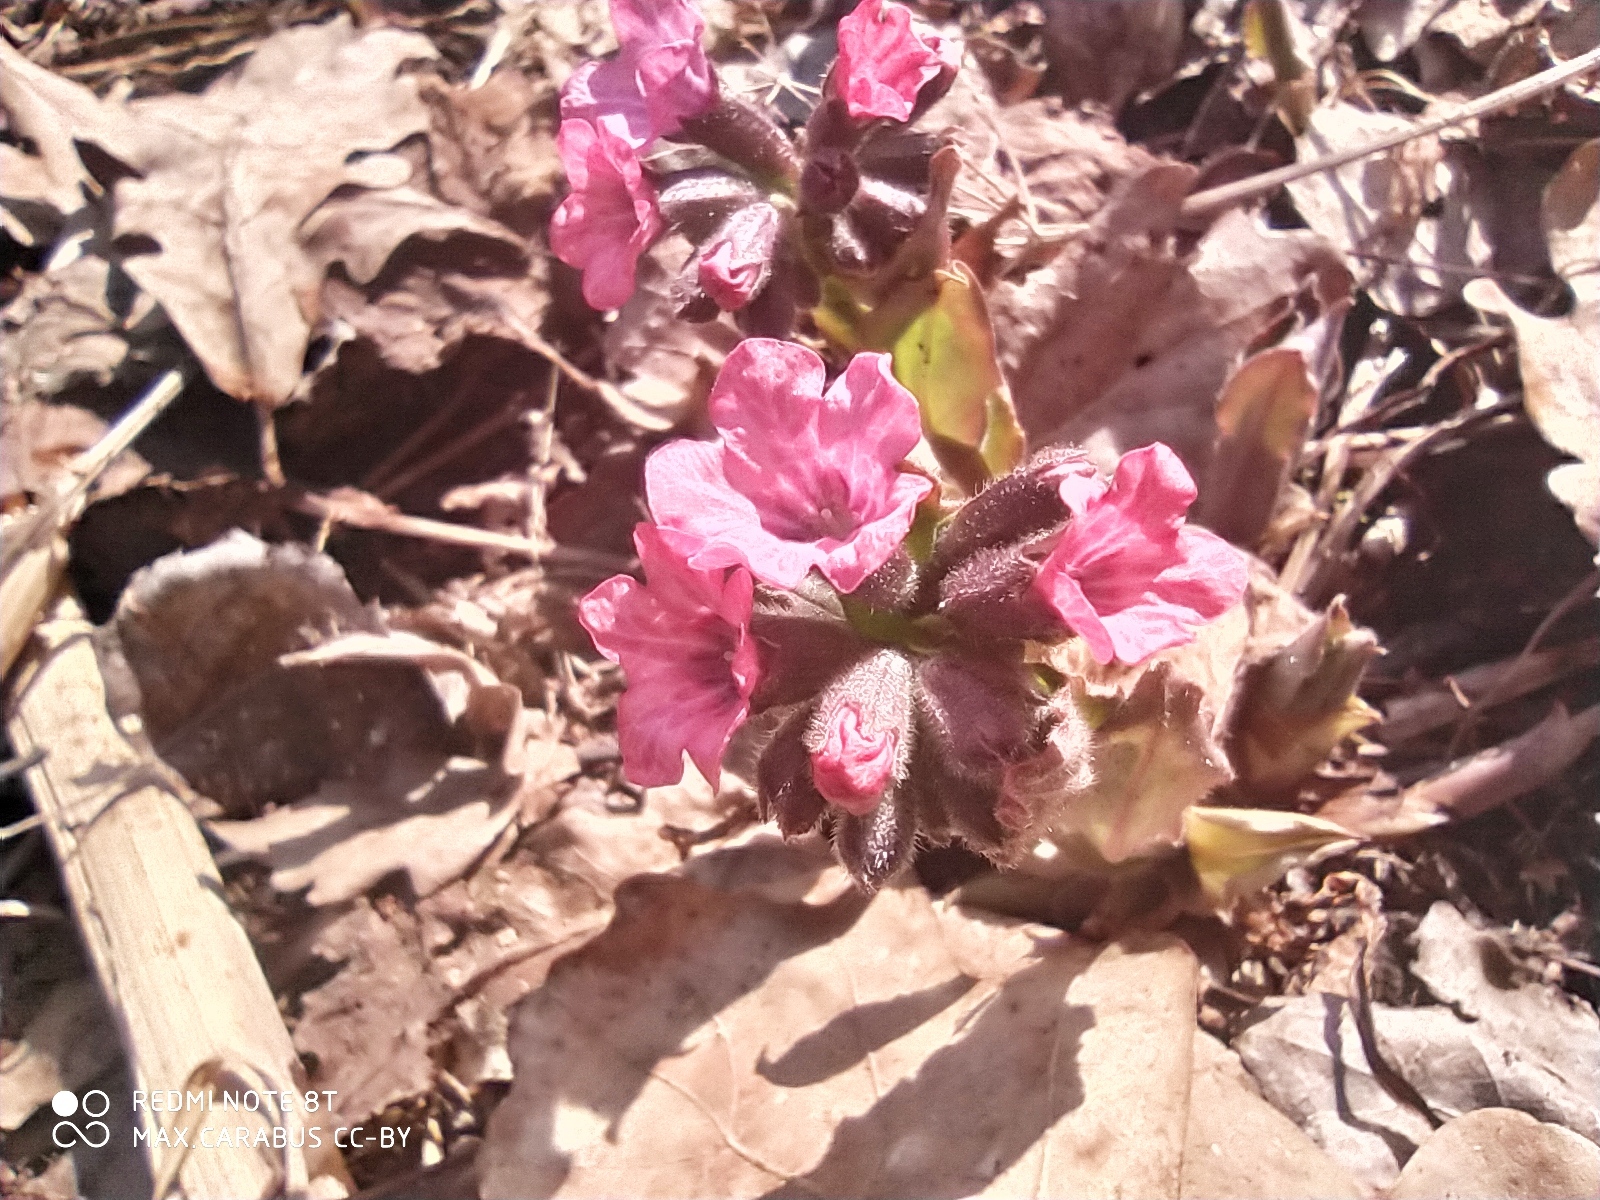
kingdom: Plantae
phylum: Tracheophyta
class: Magnoliopsida
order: Boraginales
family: Boraginaceae
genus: Pulmonaria
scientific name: Pulmonaria obscura
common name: Suffolk lungwort
